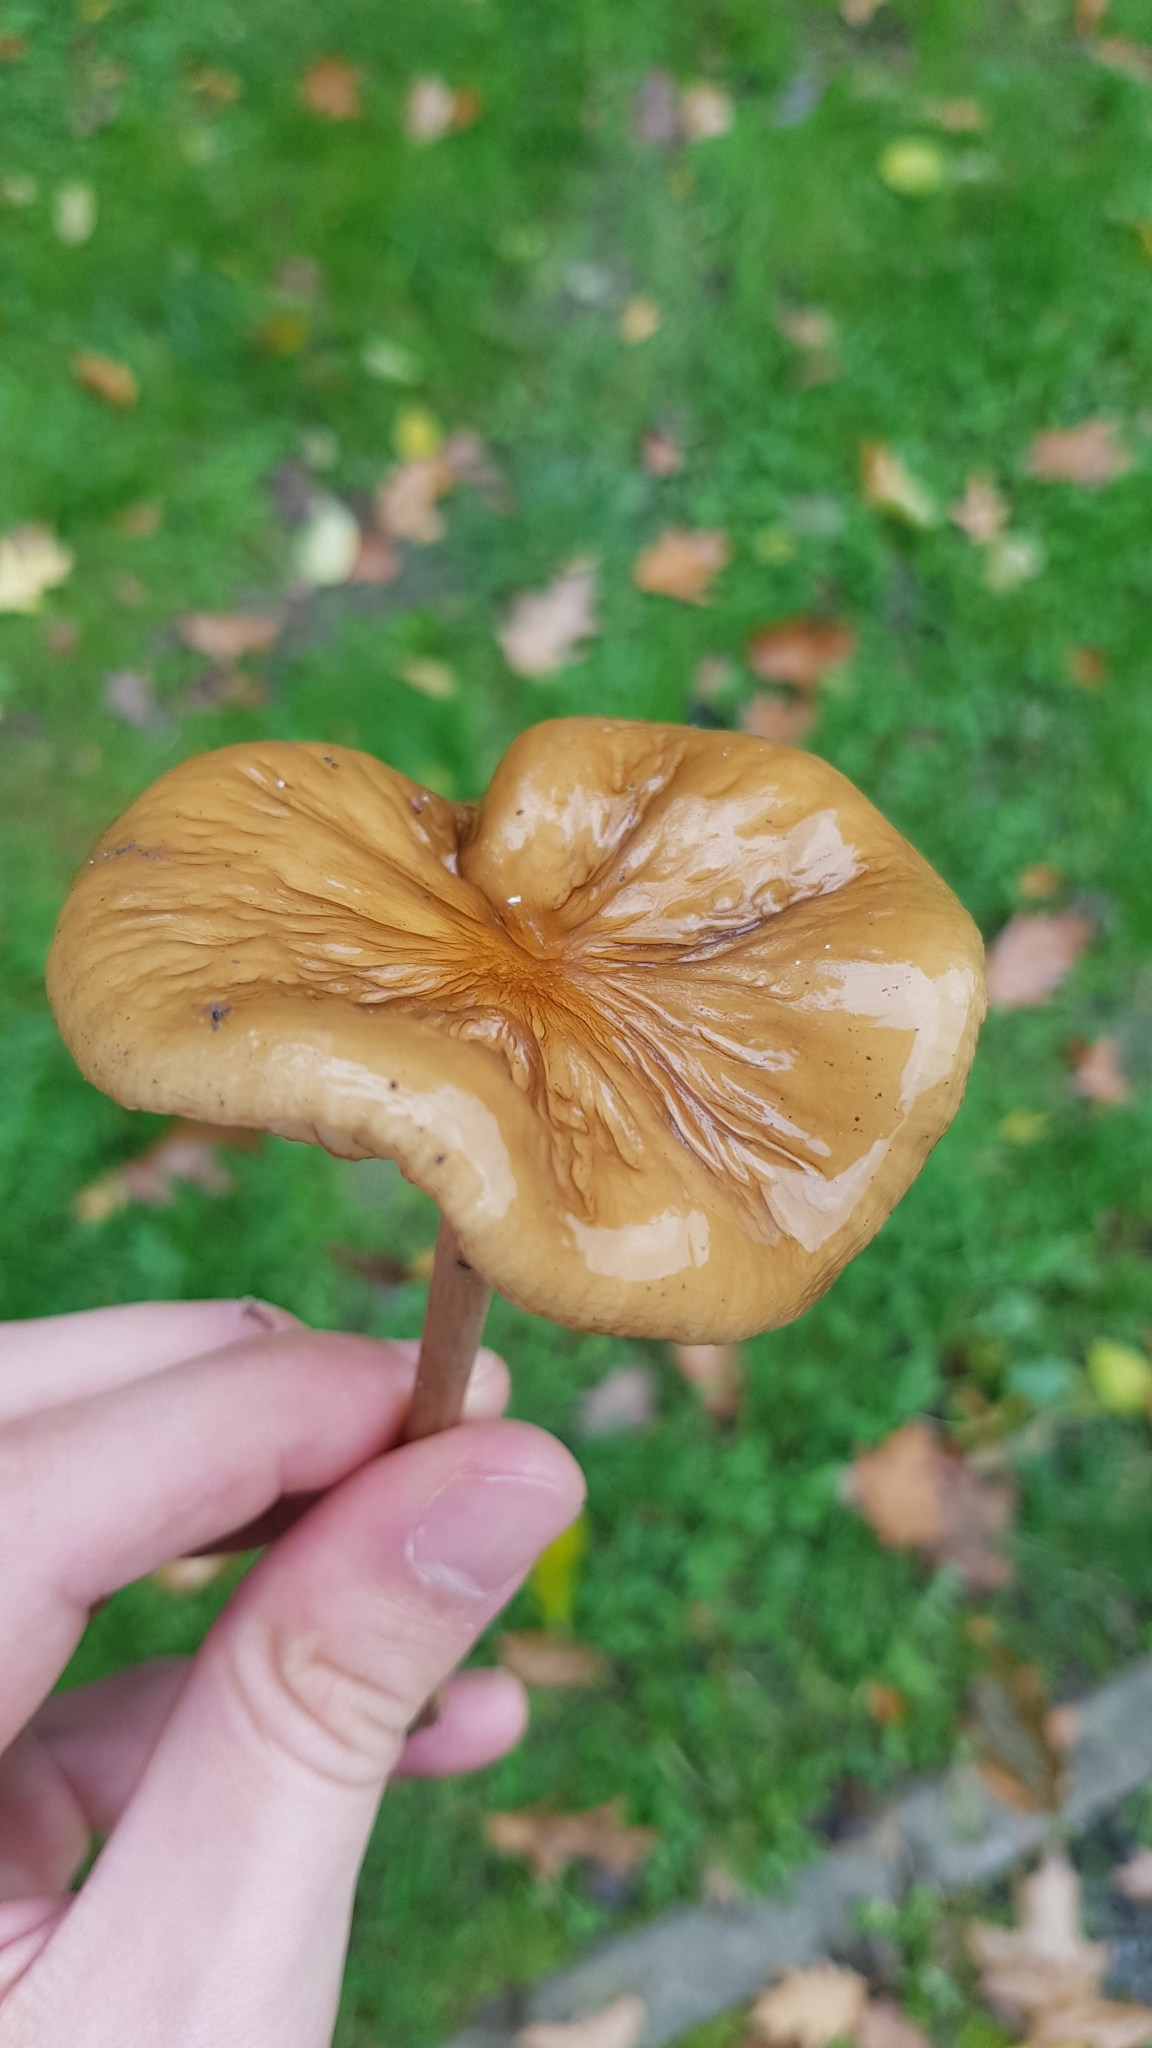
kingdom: Fungi
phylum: Basidiomycota
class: Agaricomycetes
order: Agaricales
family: Physalacriaceae
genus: Hymenopellis
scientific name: Hymenopellis radicata
